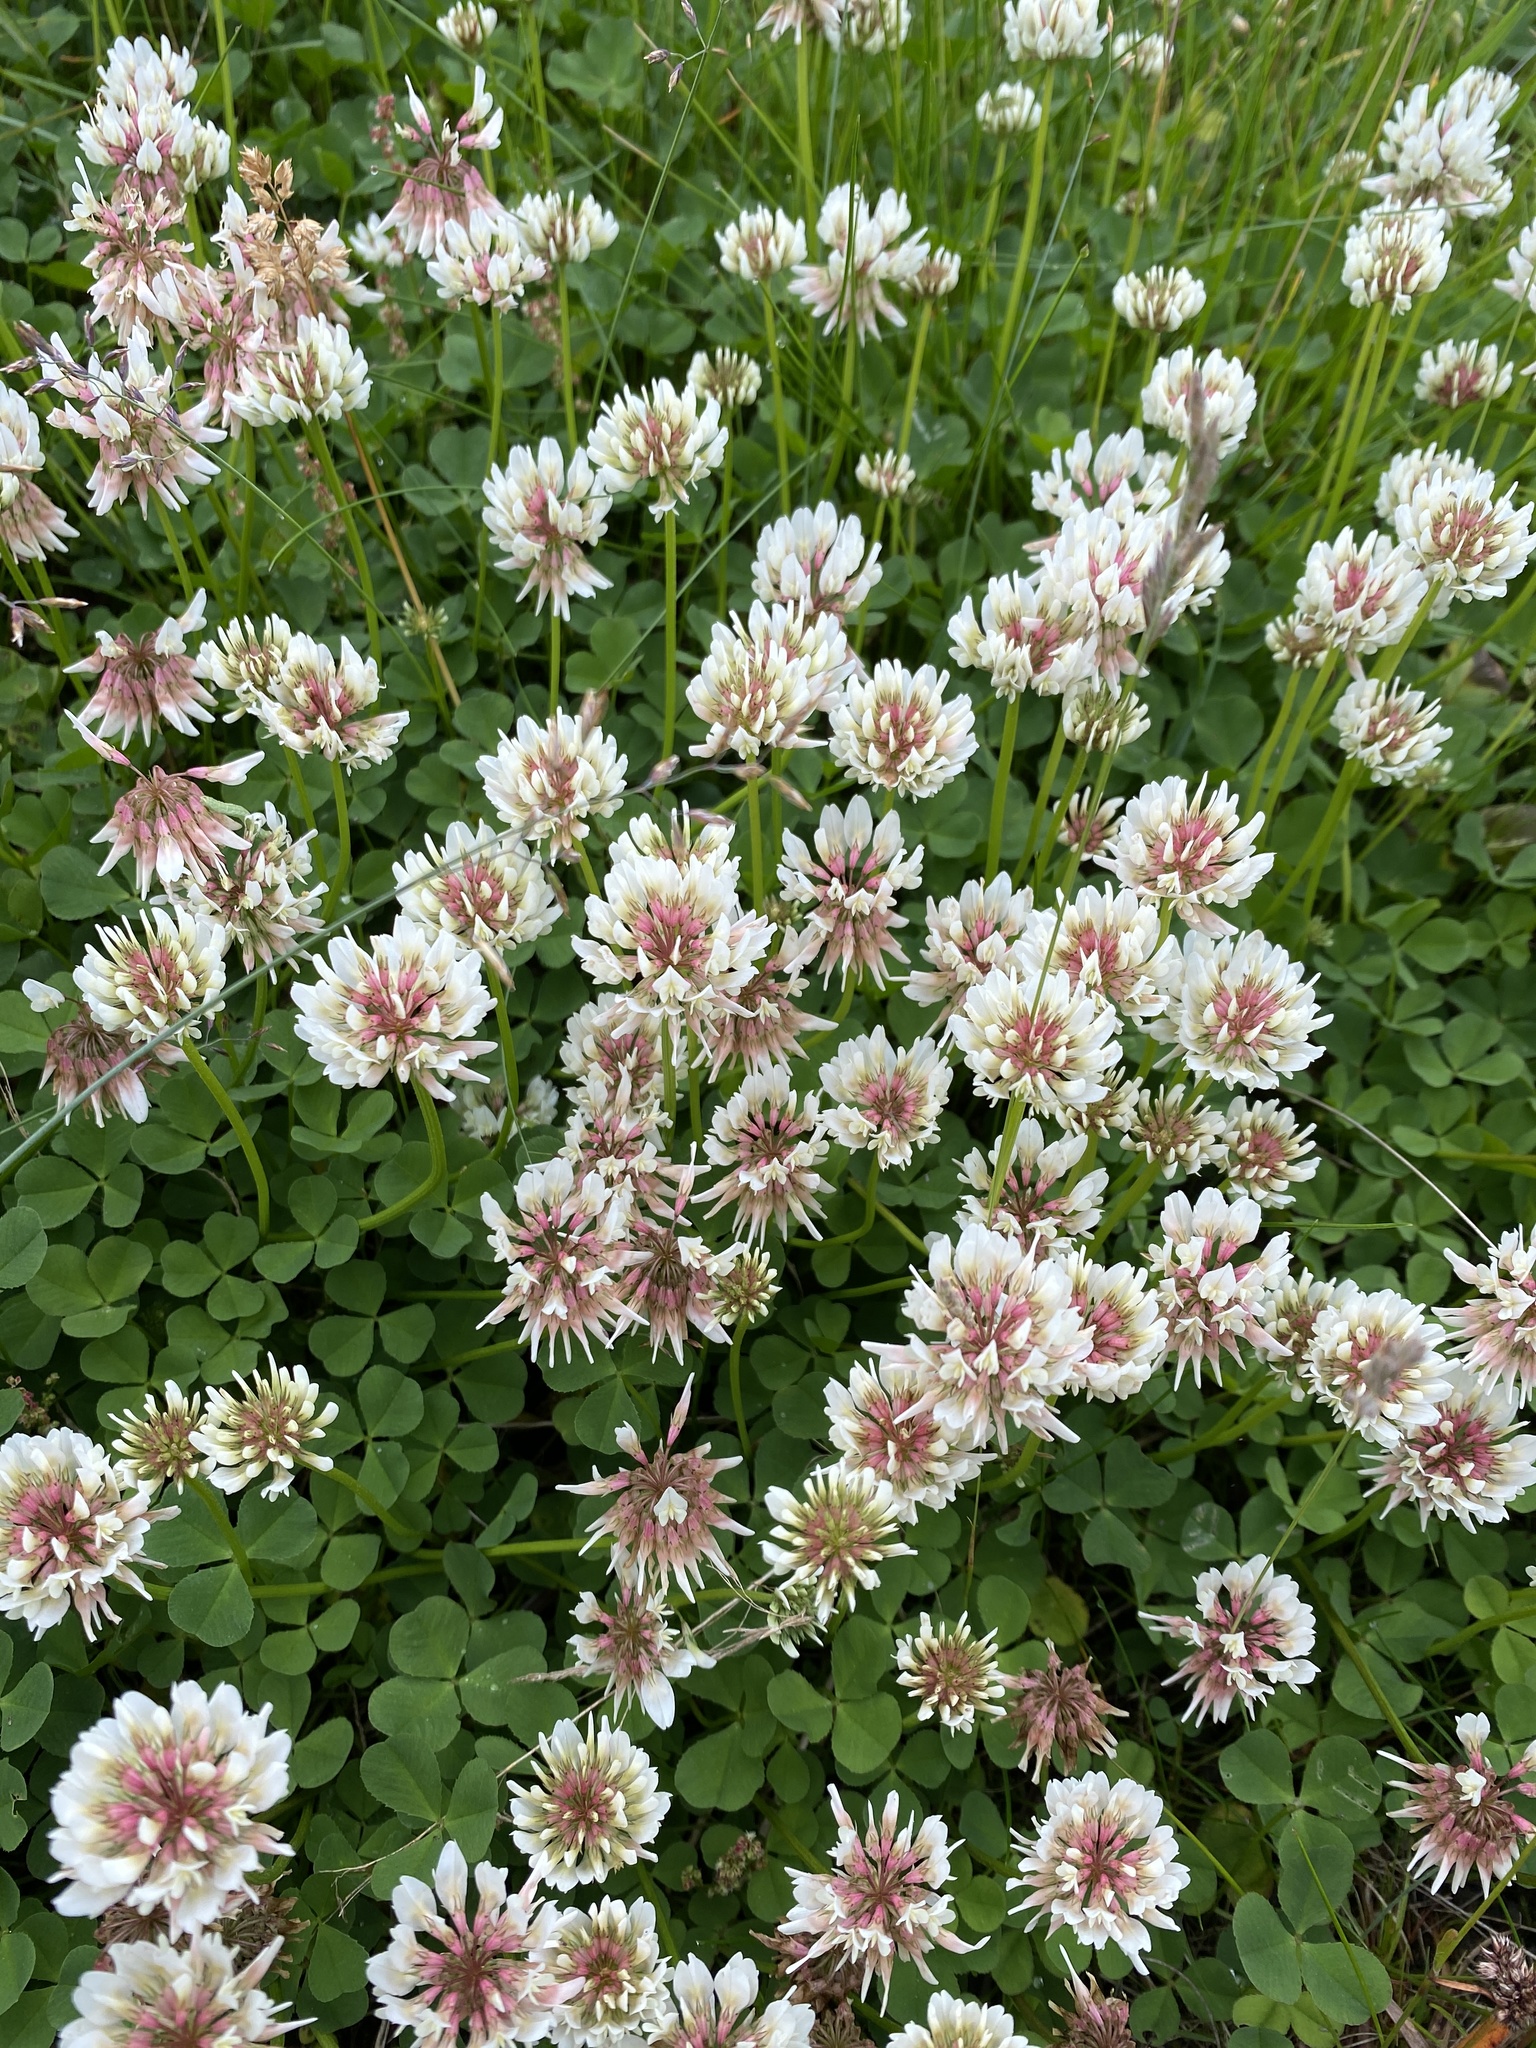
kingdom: Plantae
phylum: Tracheophyta
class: Magnoliopsida
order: Fabales
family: Fabaceae
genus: Trifolium
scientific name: Trifolium repens
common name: White clover
